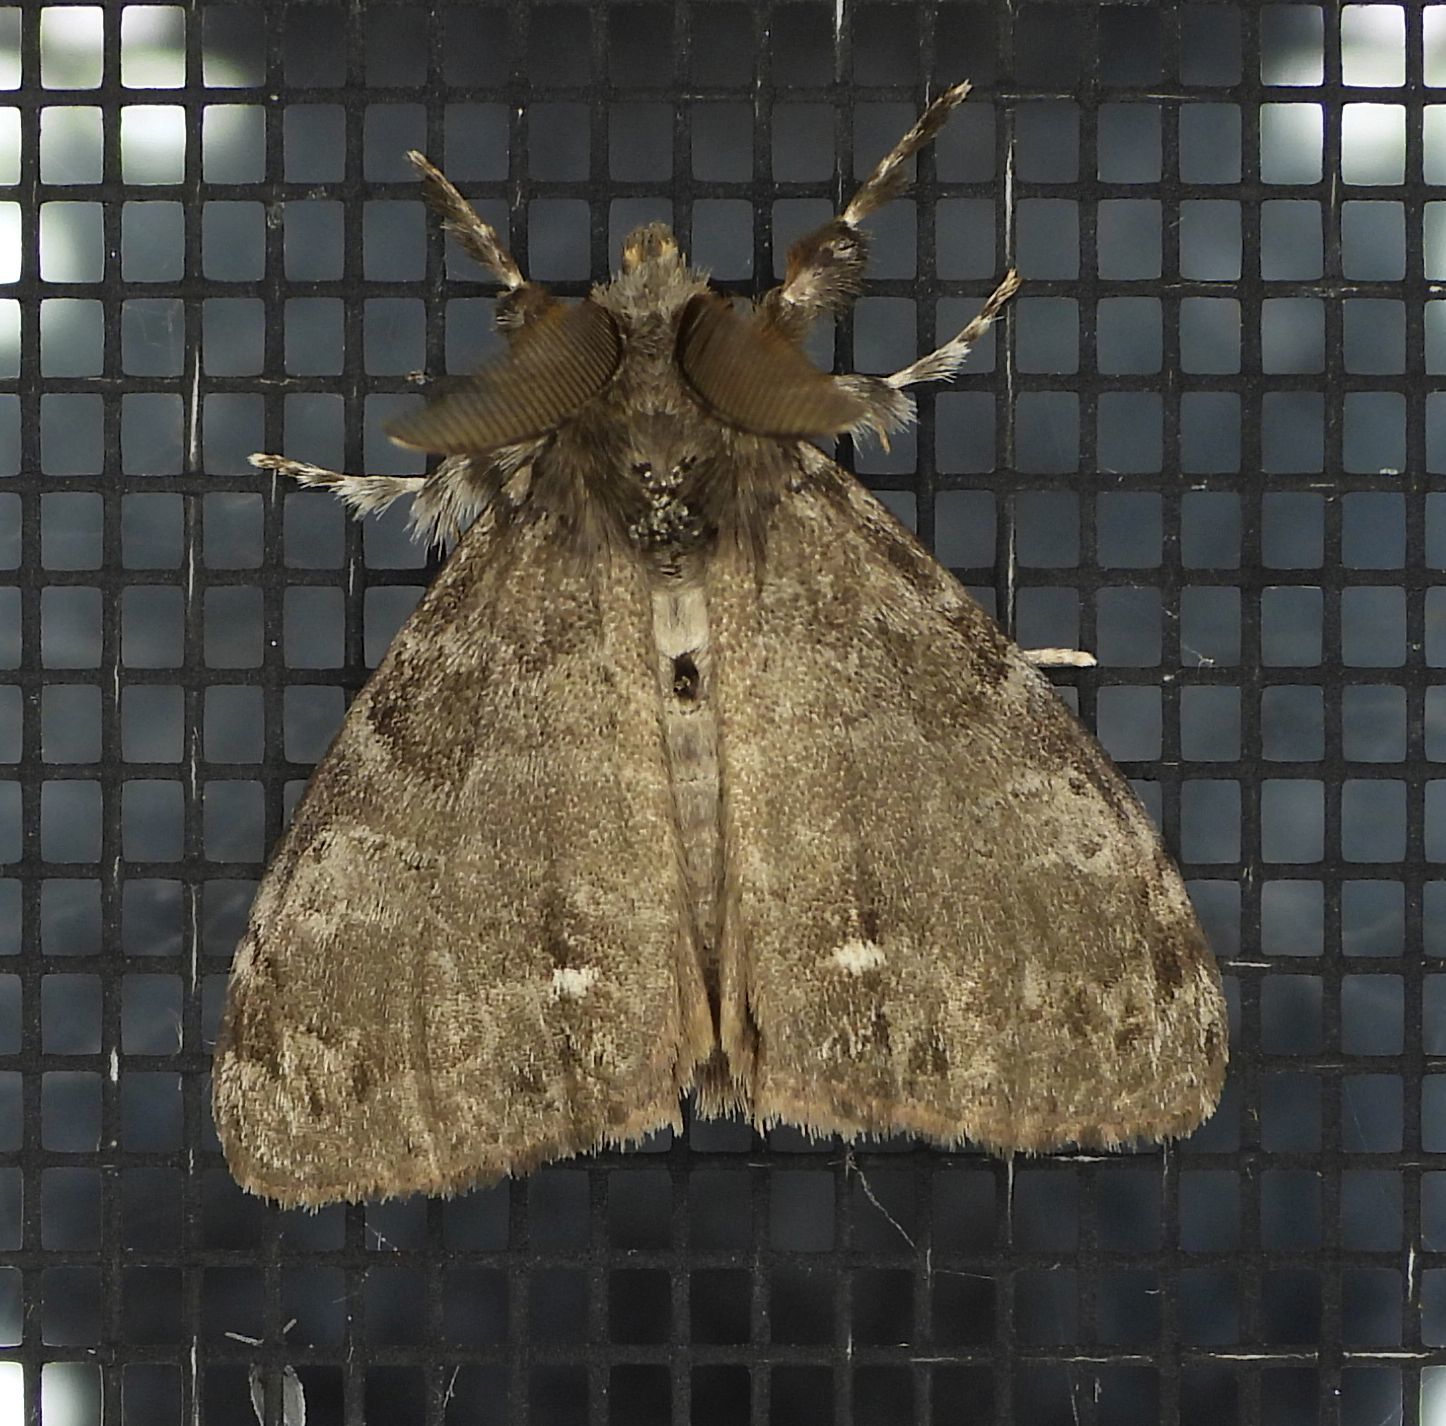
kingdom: Animalia
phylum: Arthropoda
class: Insecta
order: Lepidoptera
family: Erebidae
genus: Orgyia
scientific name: Orgyia leucostigma
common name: White-marked tussock moth
